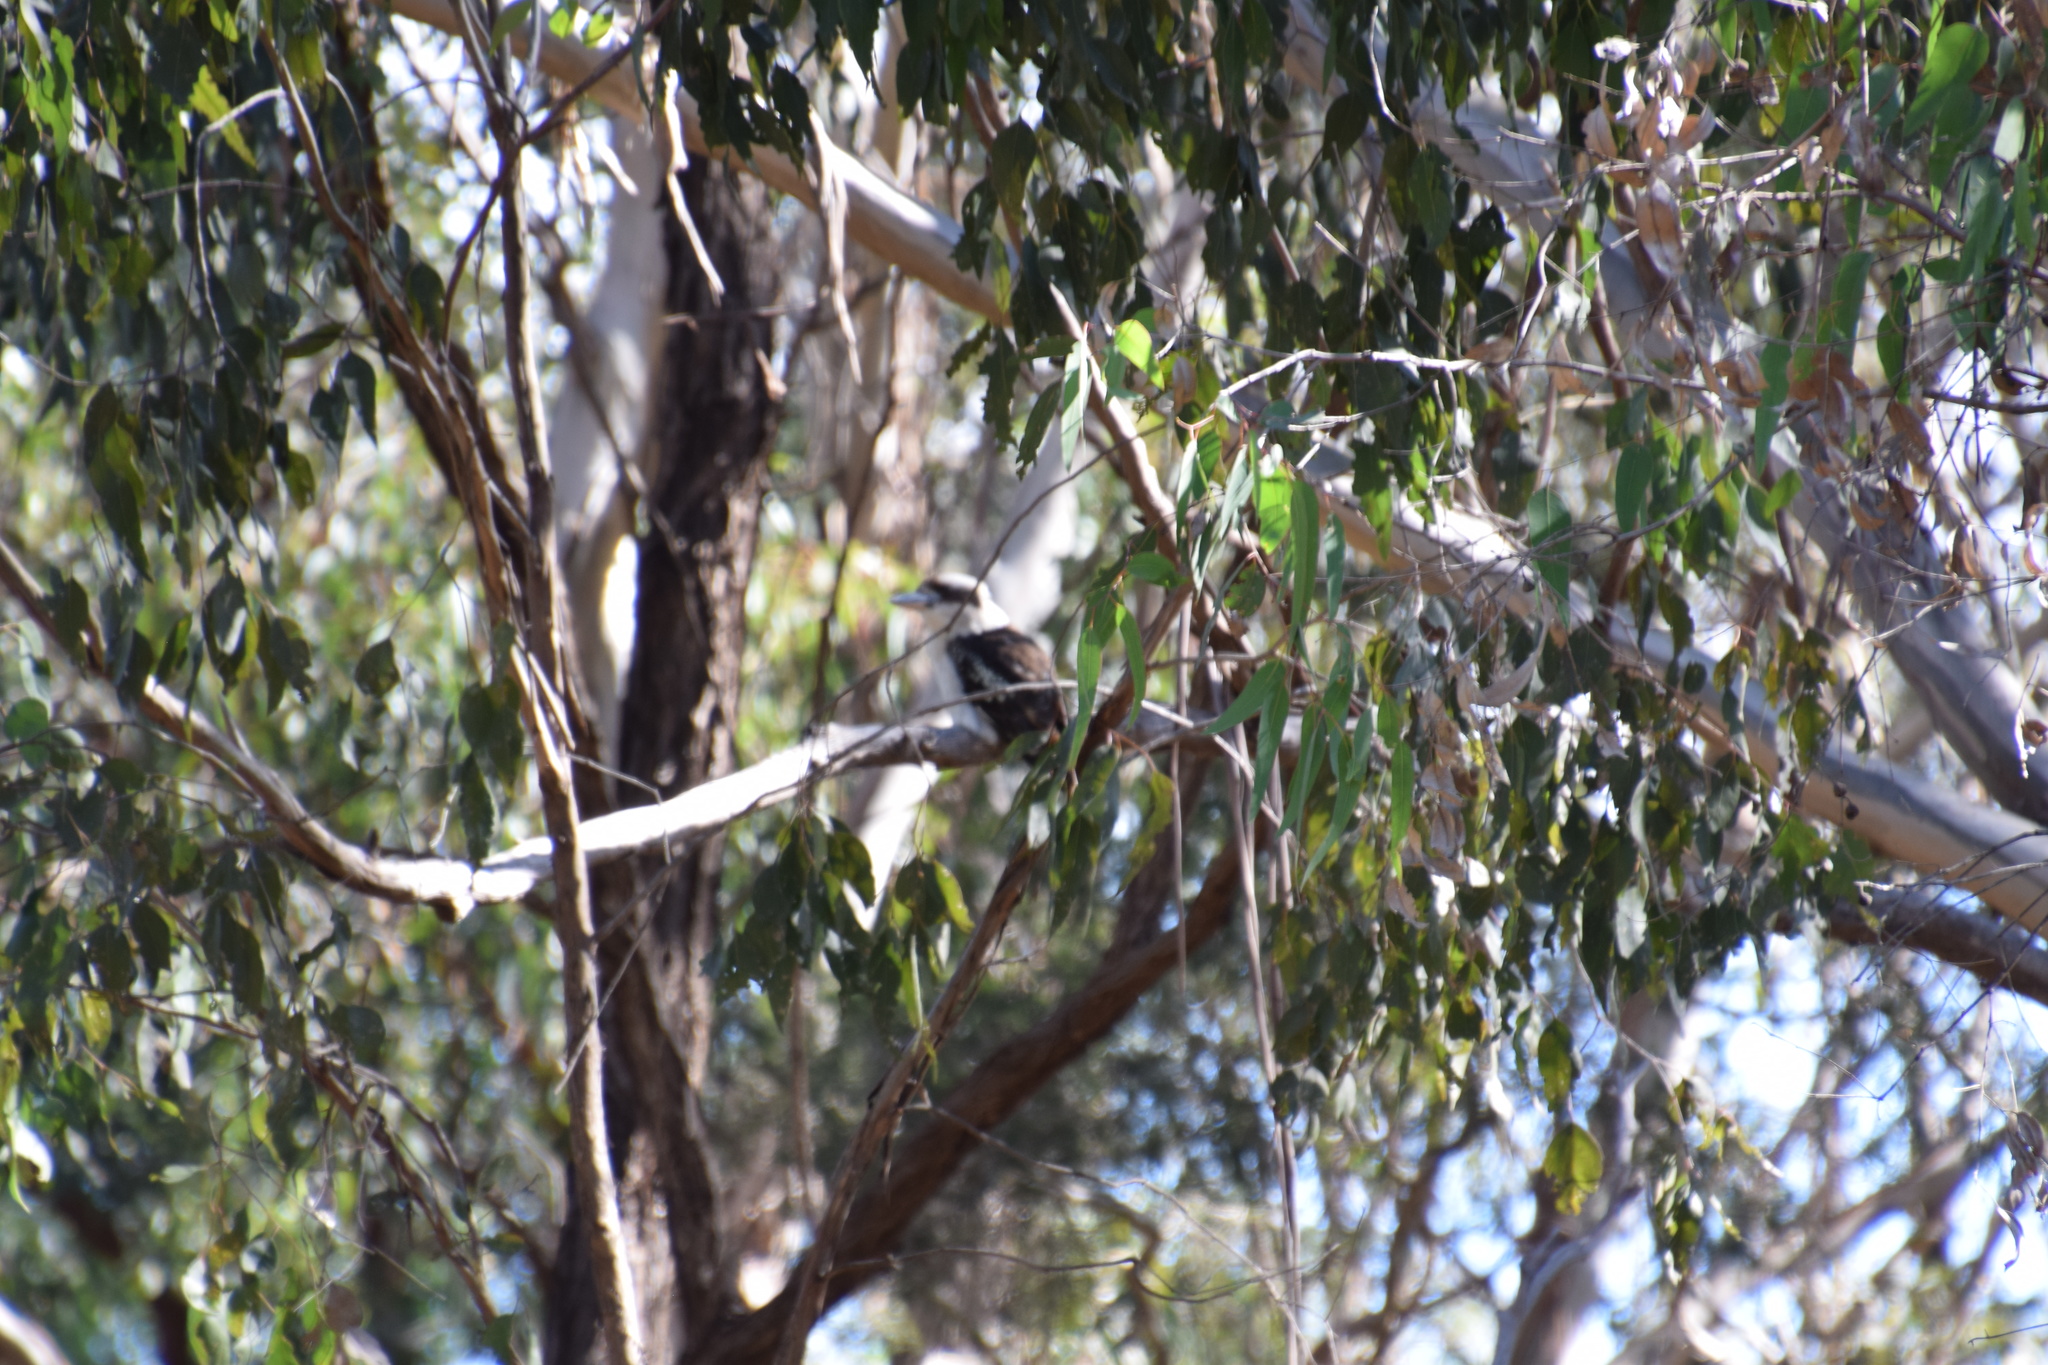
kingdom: Animalia
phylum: Chordata
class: Aves
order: Coraciiformes
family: Alcedinidae
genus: Dacelo
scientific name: Dacelo novaeguineae
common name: Laughing kookaburra
